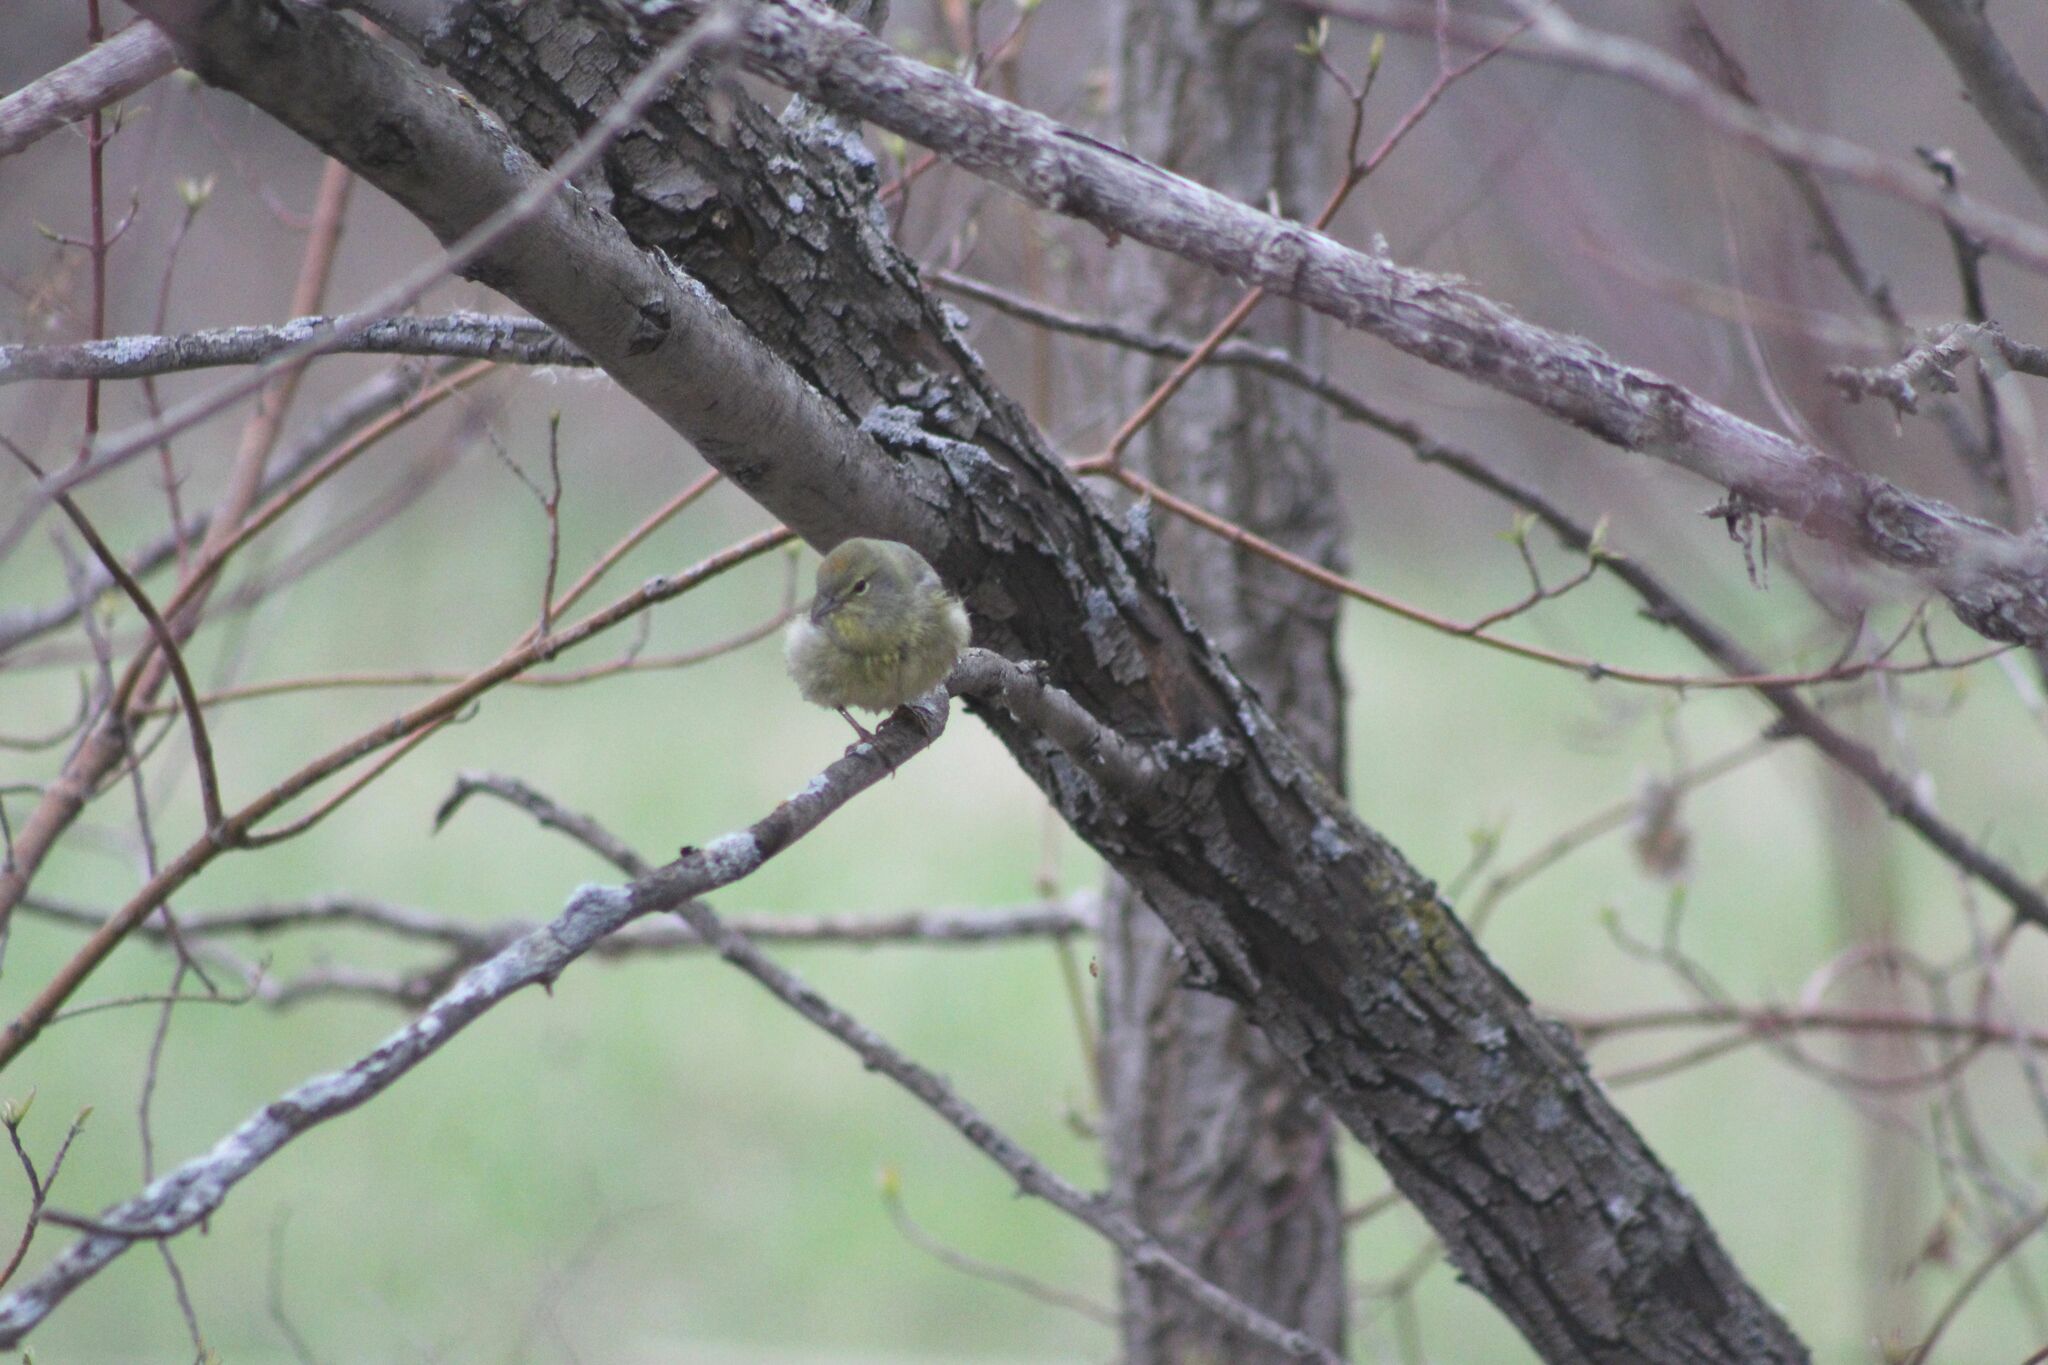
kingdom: Animalia
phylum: Chordata
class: Aves
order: Passeriformes
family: Parulidae
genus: Leiothlypis
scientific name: Leiothlypis celata
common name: Orange-crowned warbler
